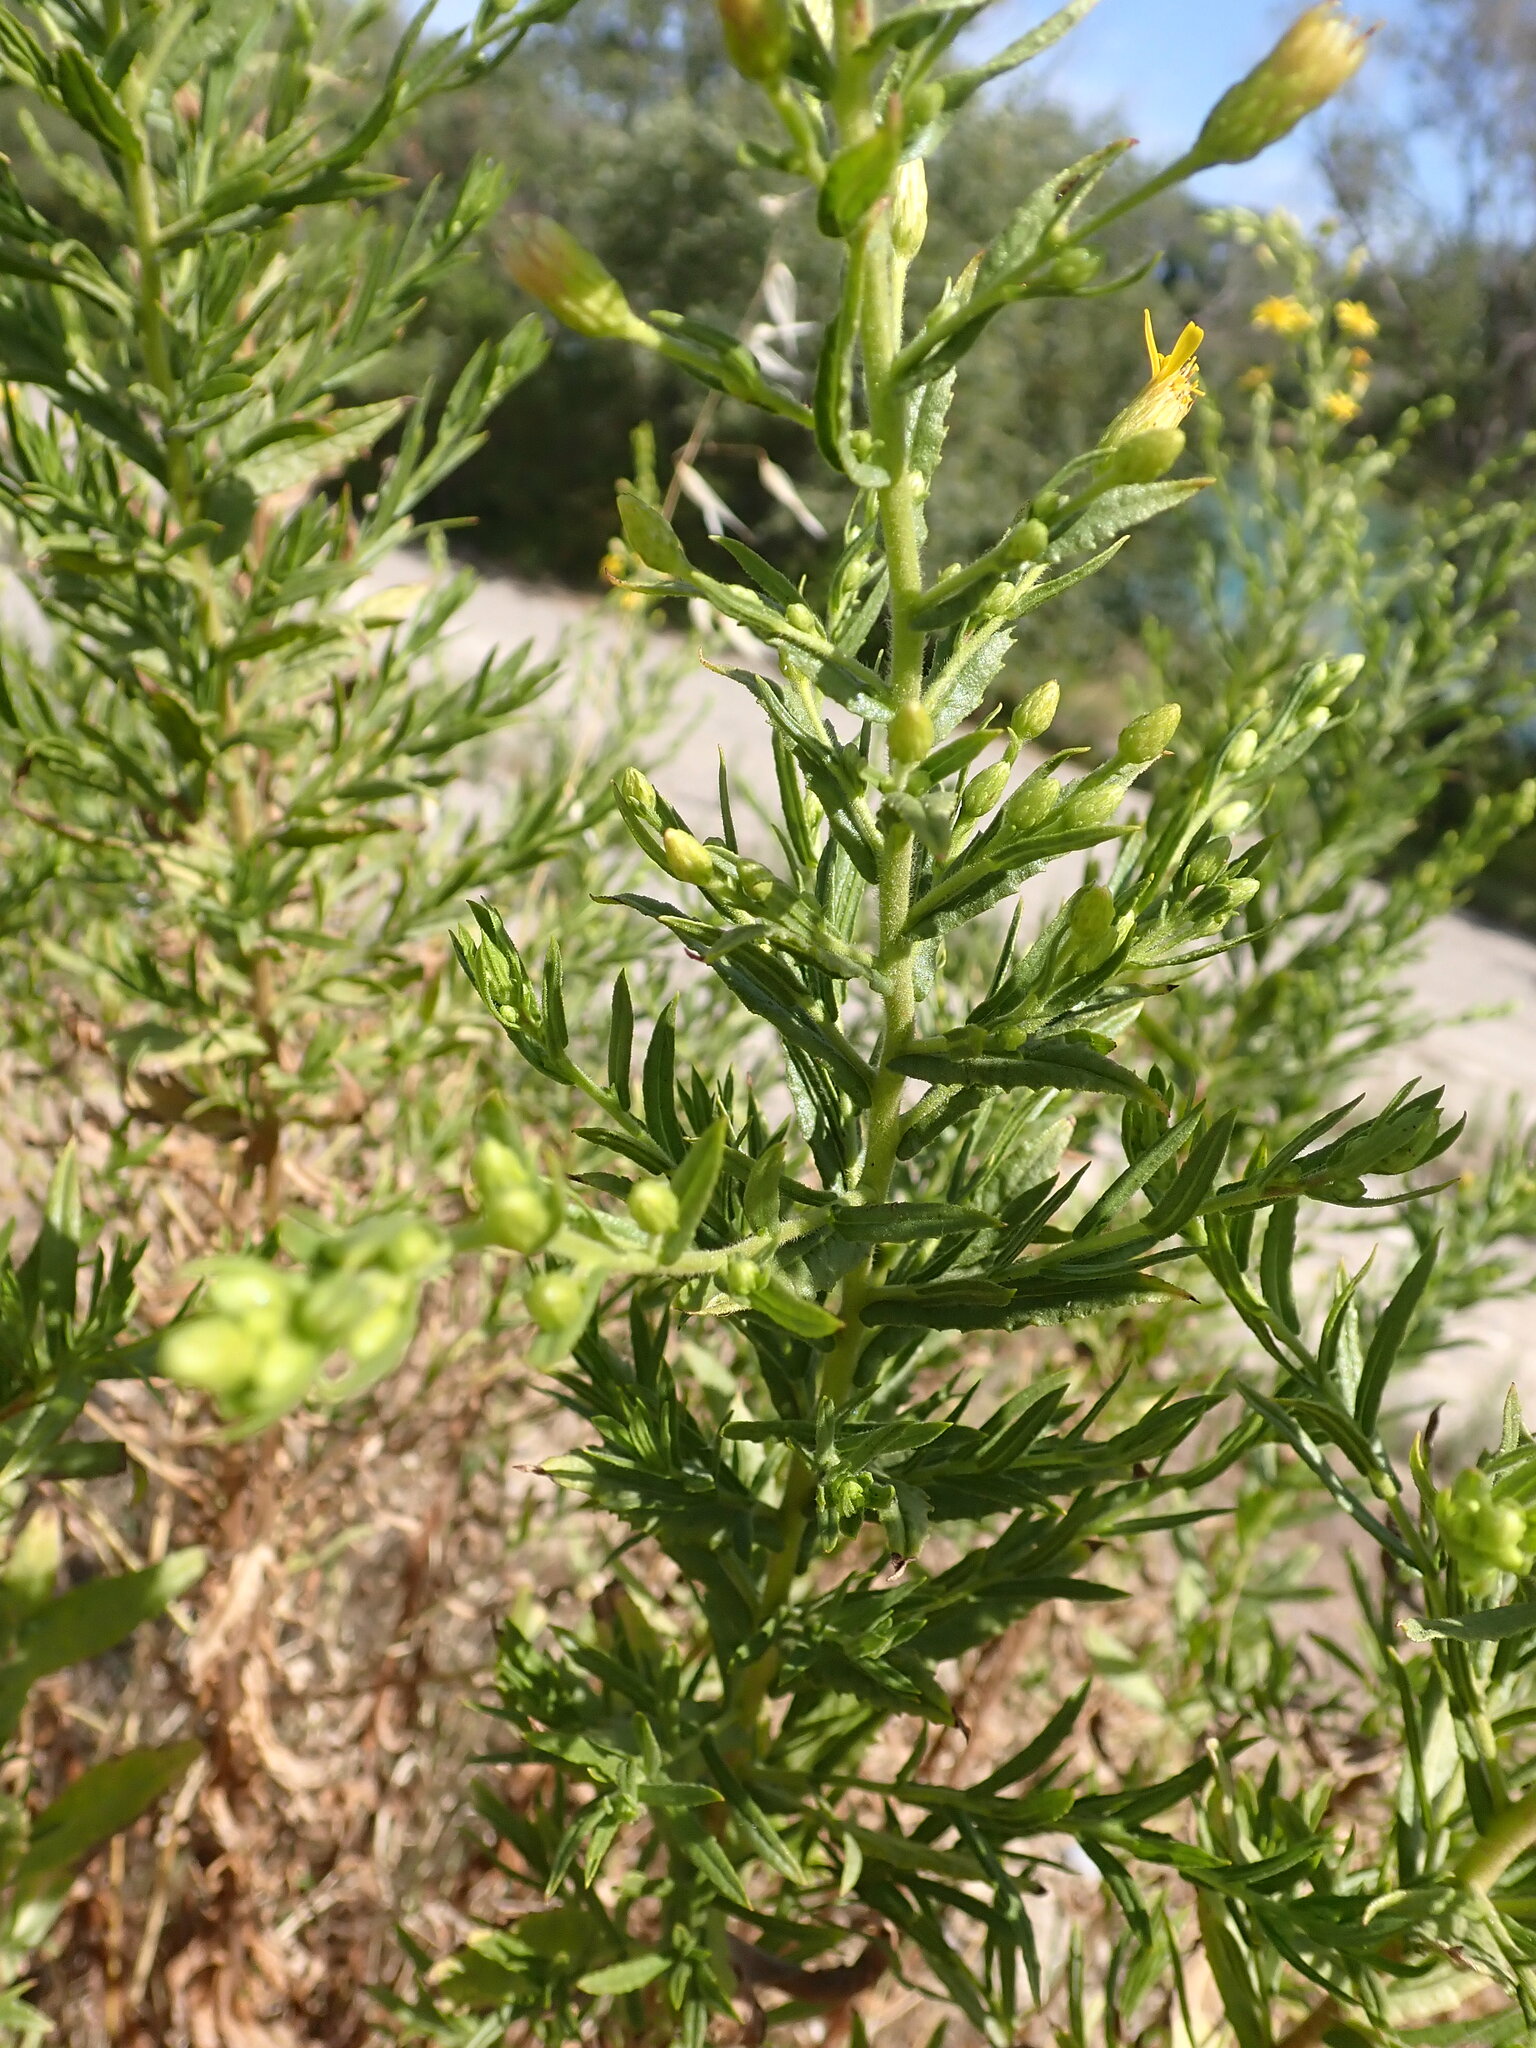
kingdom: Plantae
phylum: Tracheophyta
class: Magnoliopsida
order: Asterales
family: Asteraceae
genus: Dittrichia
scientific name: Dittrichia viscosa
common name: Woody fleabane
